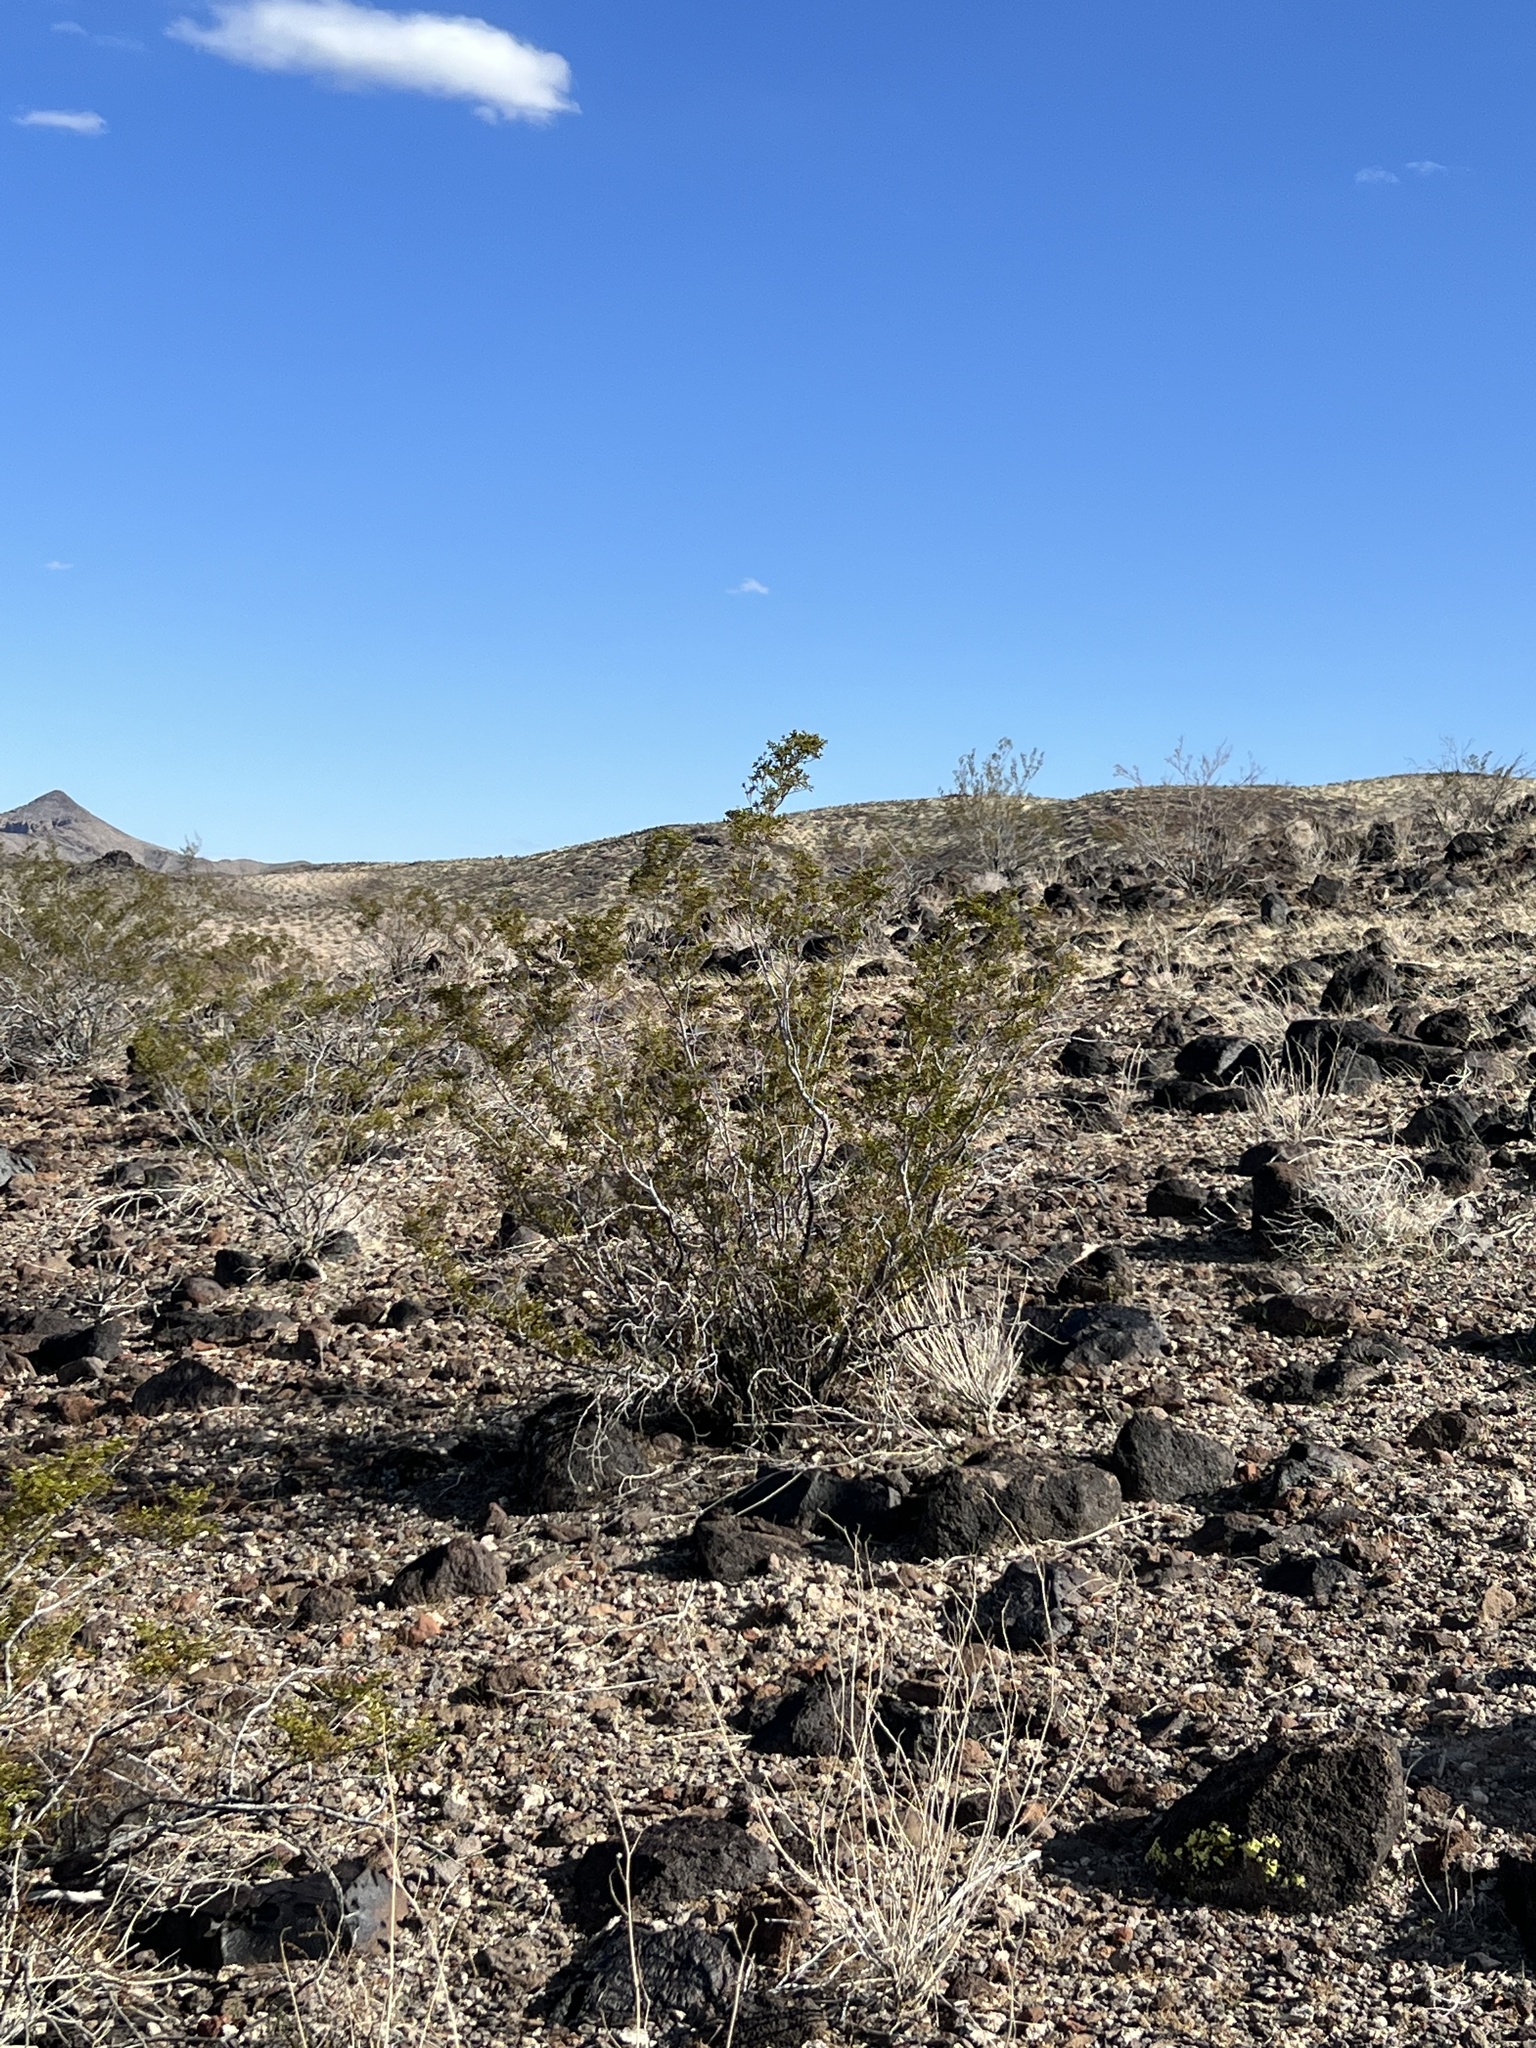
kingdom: Plantae
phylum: Tracheophyta
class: Magnoliopsida
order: Zygophyllales
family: Zygophyllaceae
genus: Larrea
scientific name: Larrea tridentata
